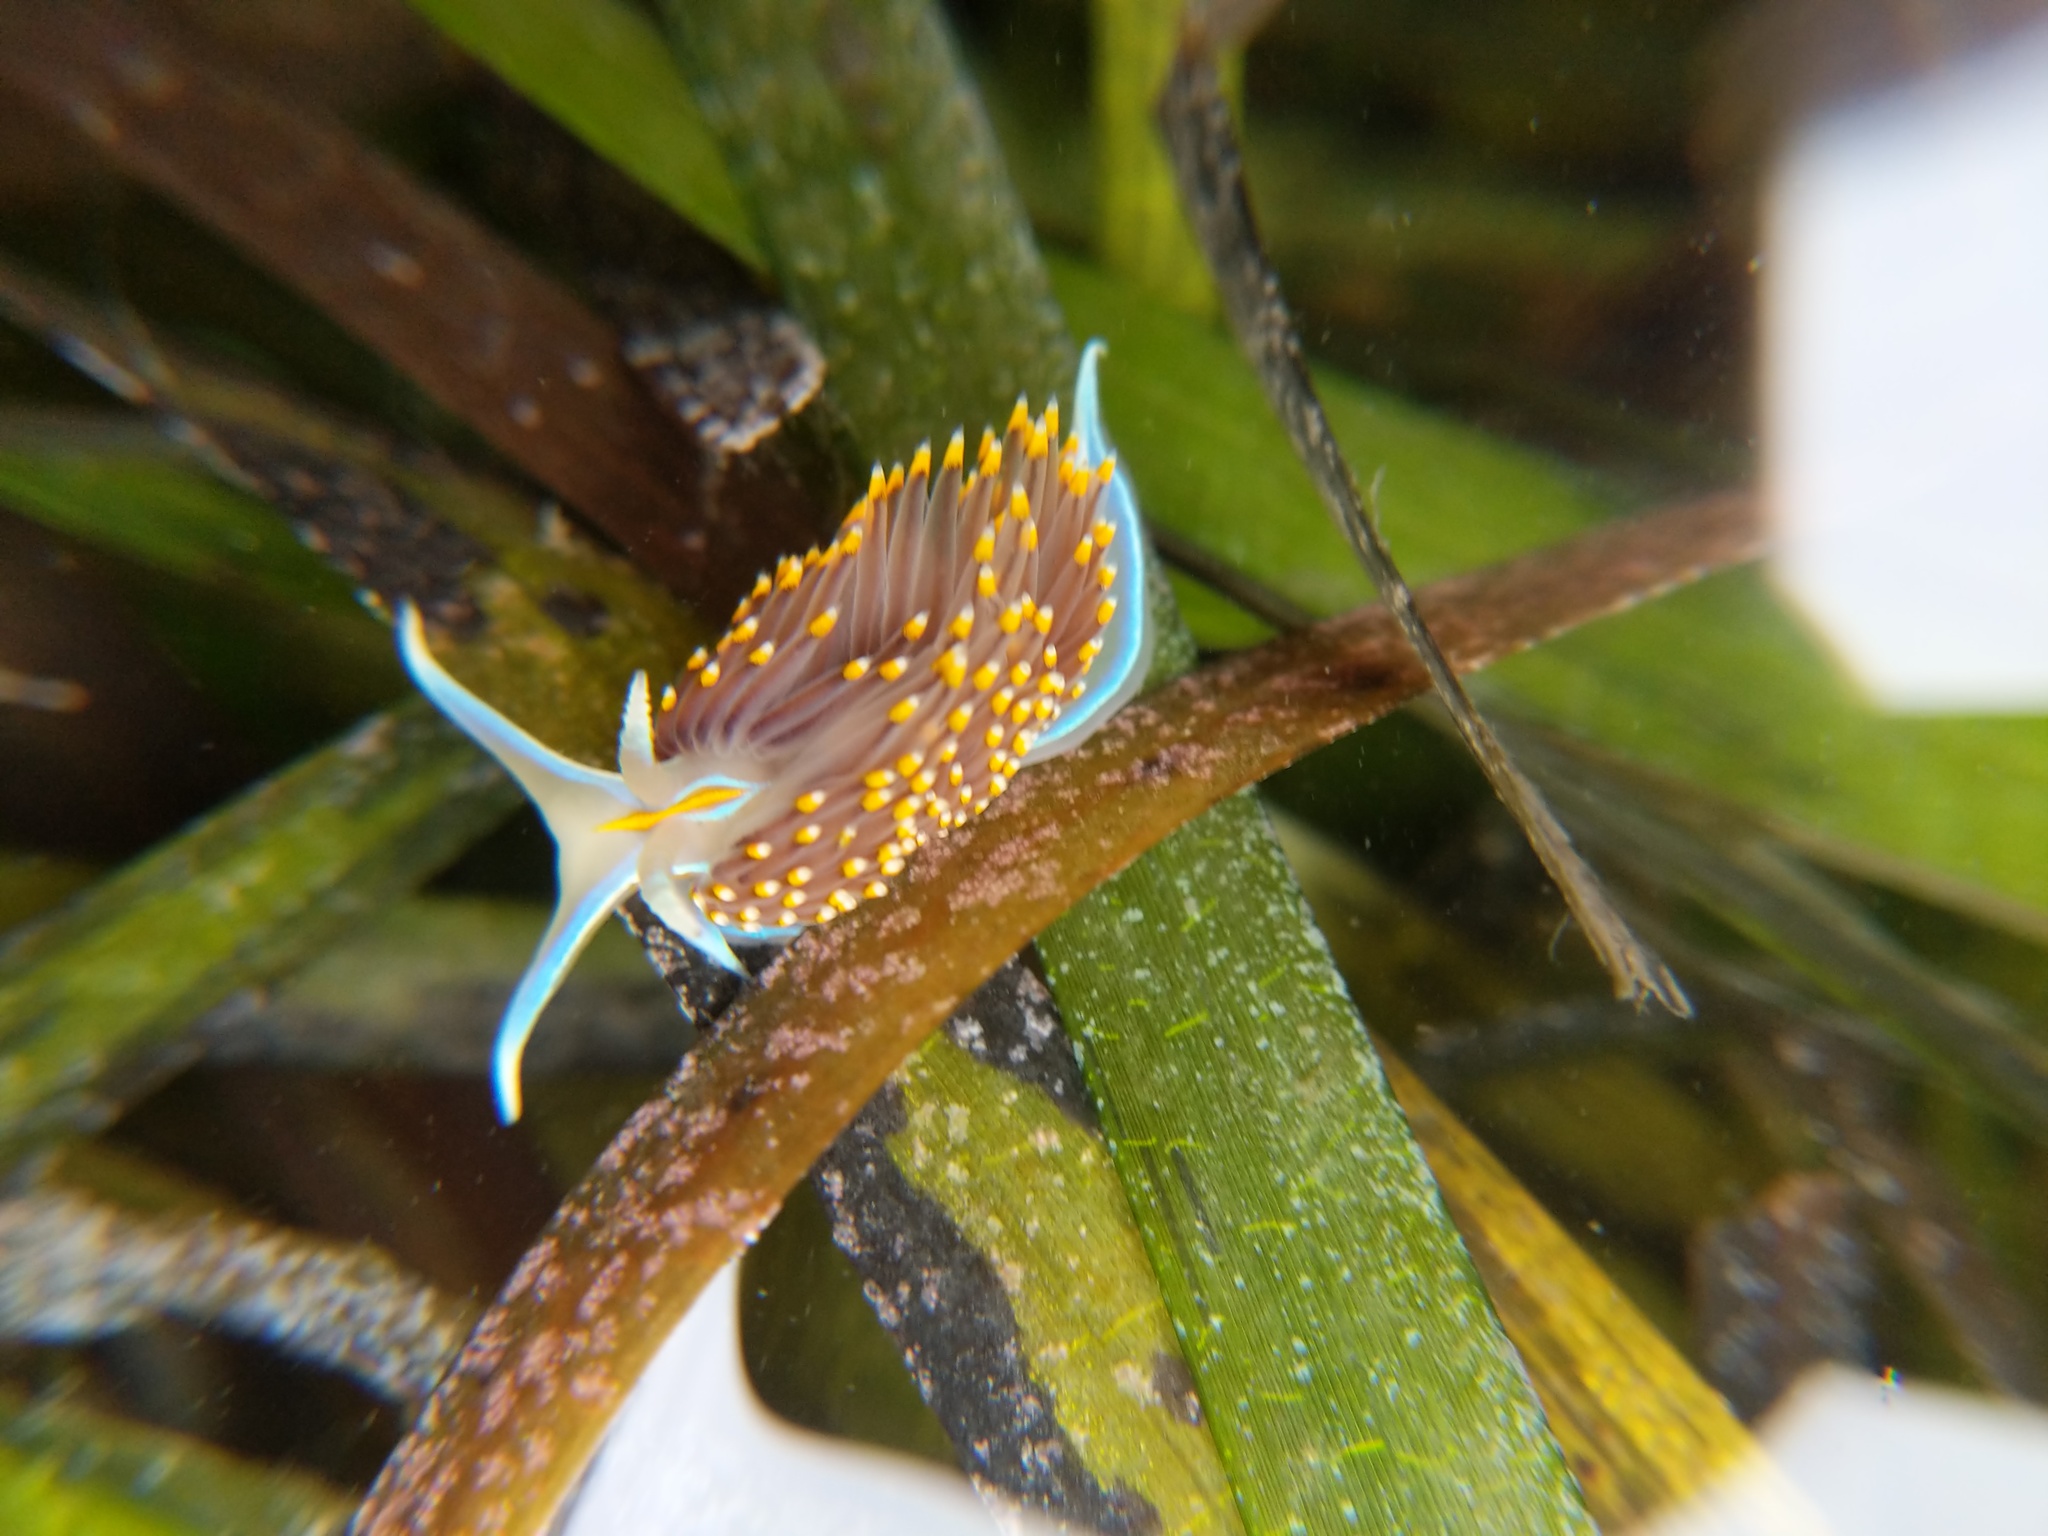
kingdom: Animalia
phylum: Mollusca
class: Gastropoda
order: Nudibranchia
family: Myrrhinidae
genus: Hermissenda
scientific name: Hermissenda opalescens
